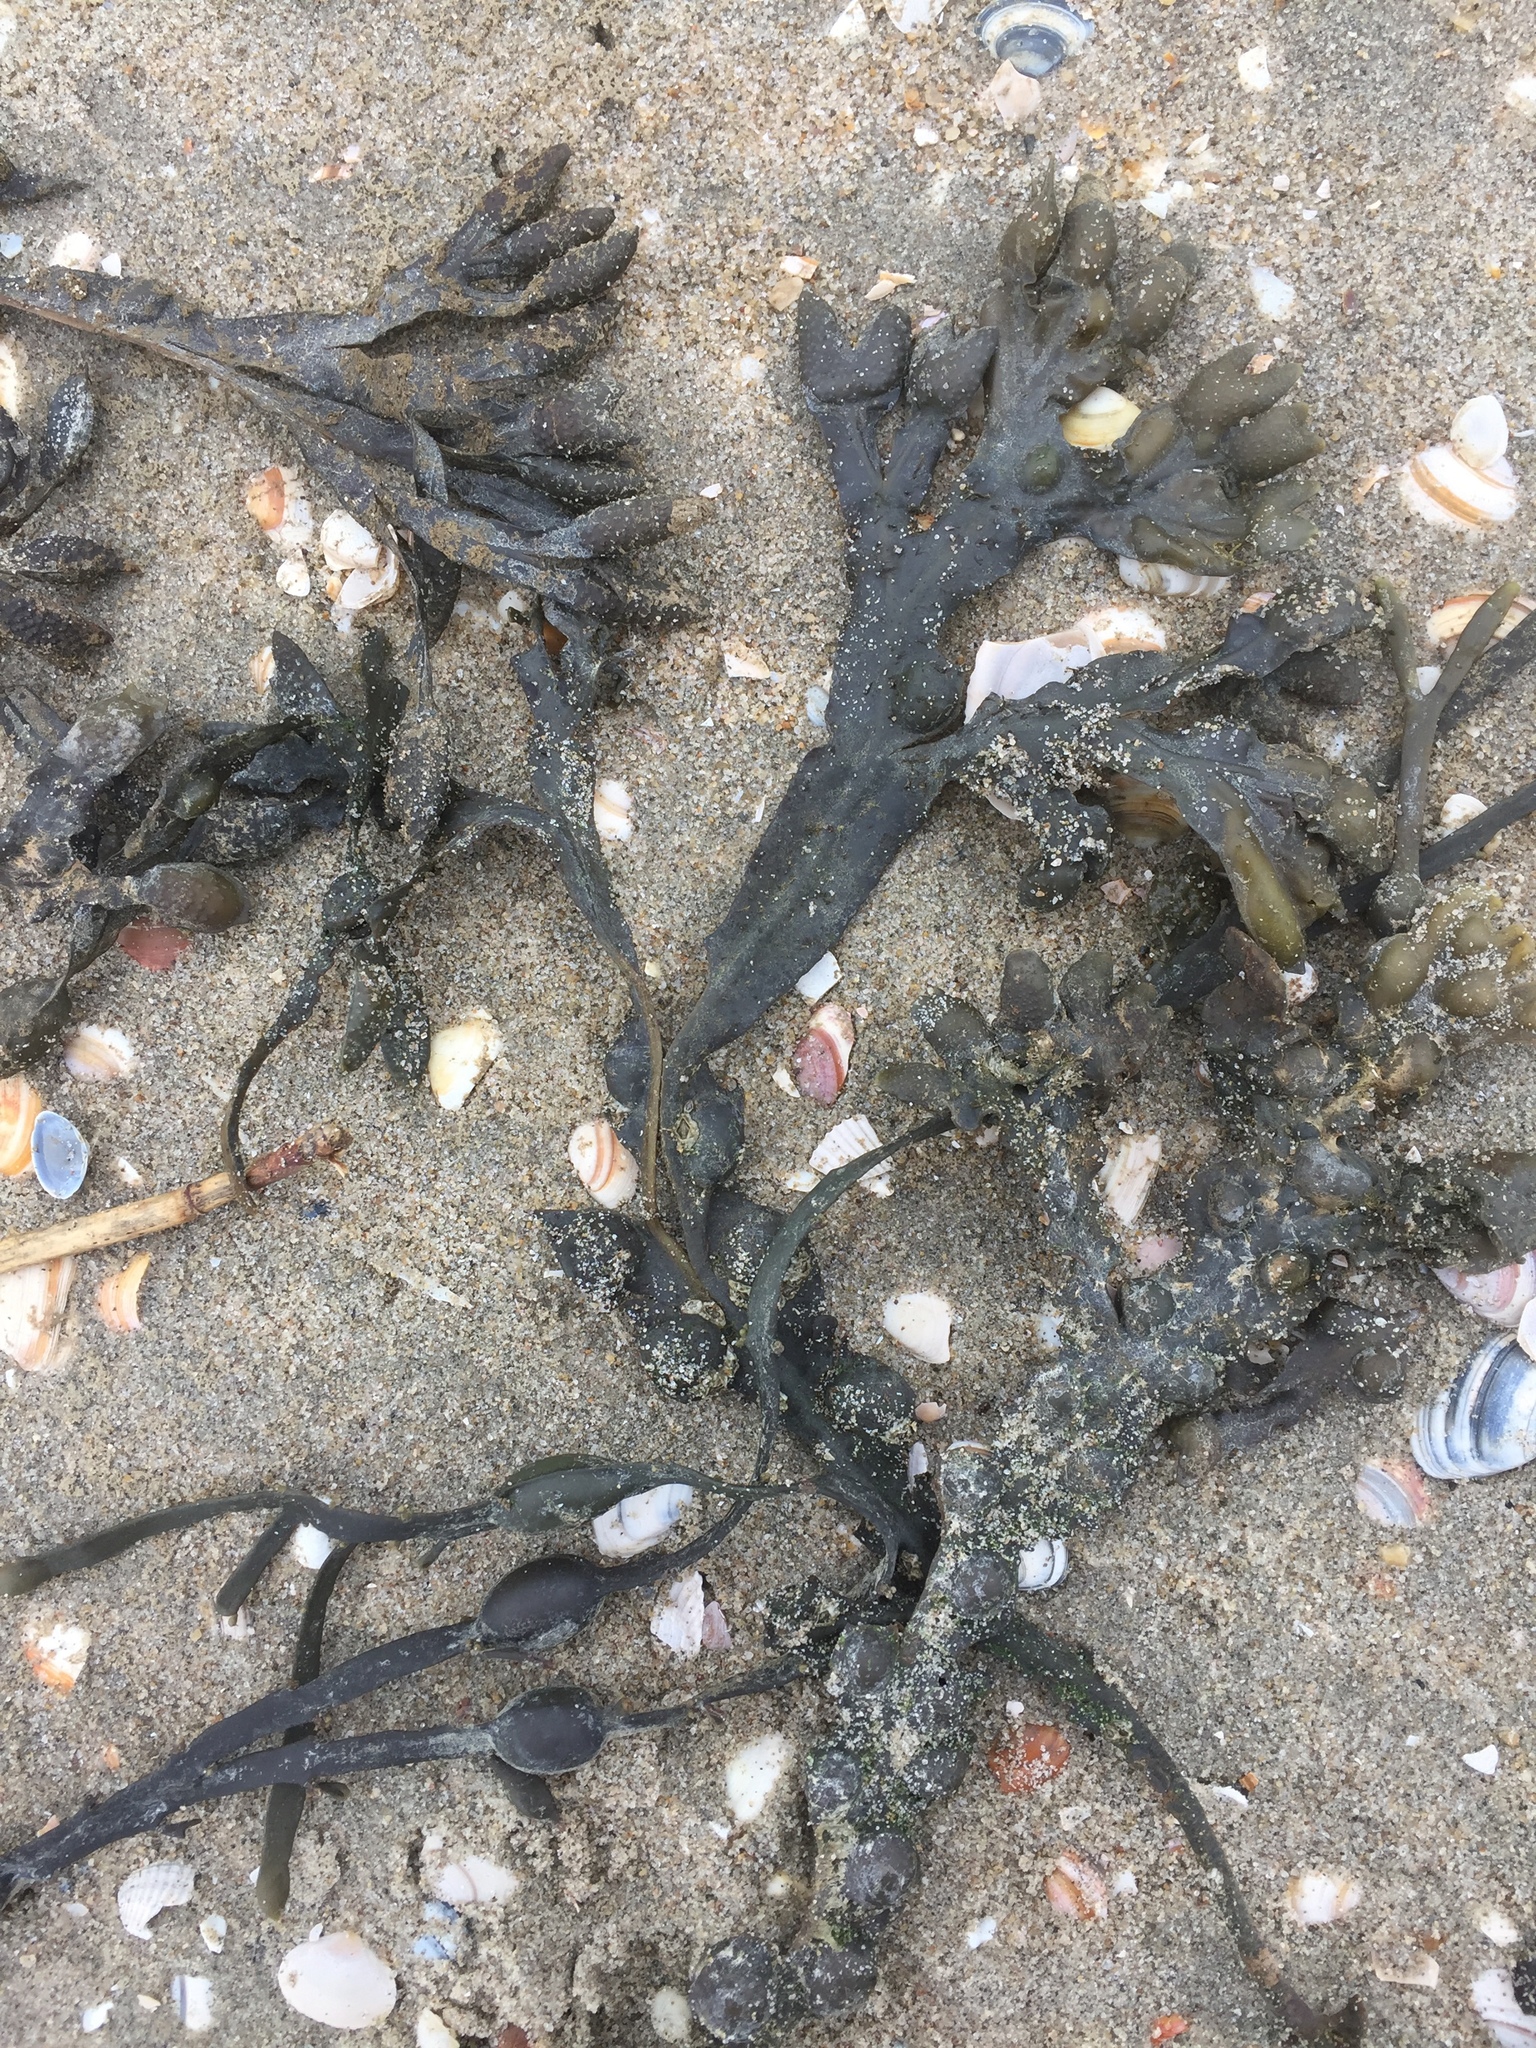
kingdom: Chromista
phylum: Ochrophyta
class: Phaeophyceae
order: Fucales
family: Fucaceae
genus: Ascophyllum
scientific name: Ascophyllum nodosum
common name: Knotted wrack
